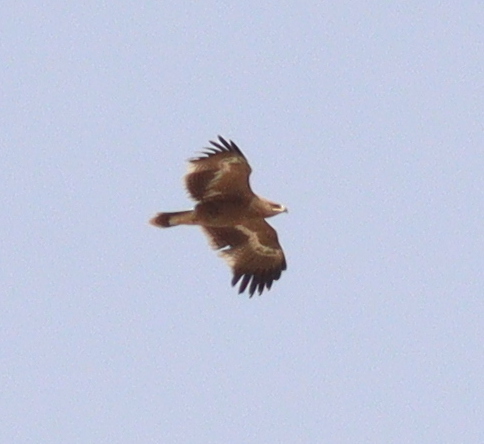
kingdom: Animalia
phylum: Chordata
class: Aves
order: Accipitriformes
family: Accipitridae
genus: Aquila
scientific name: Aquila nipalensis
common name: Steppe eagle
